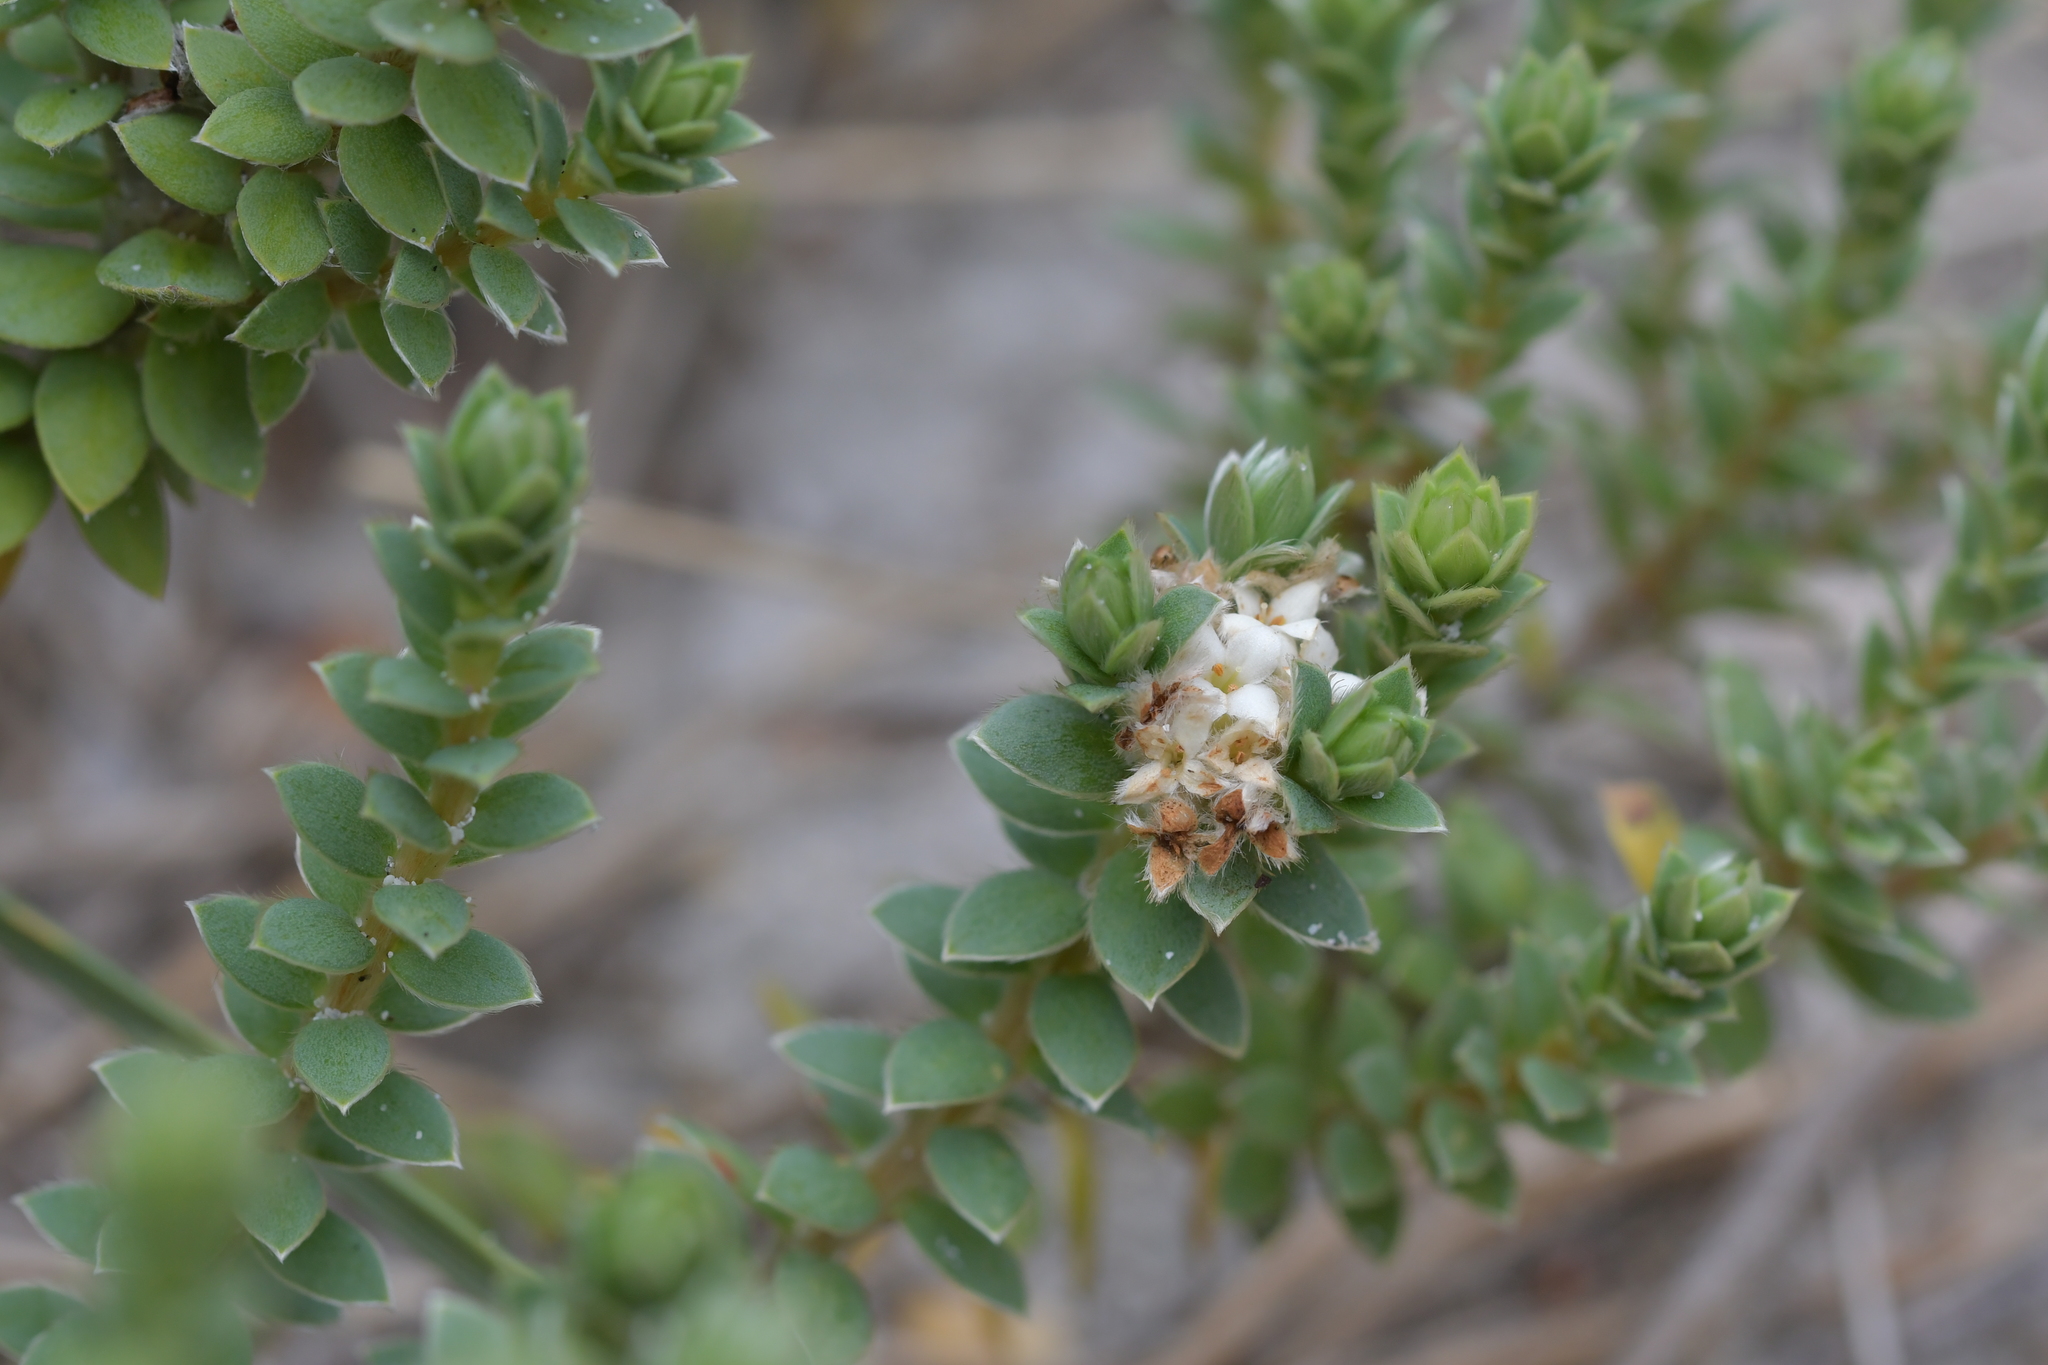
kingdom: Plantae
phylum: Tracheophyta
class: Magnoliopsida
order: Malvales
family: Thymelaeaceae
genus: Pimelea
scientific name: Pimelea villosa
